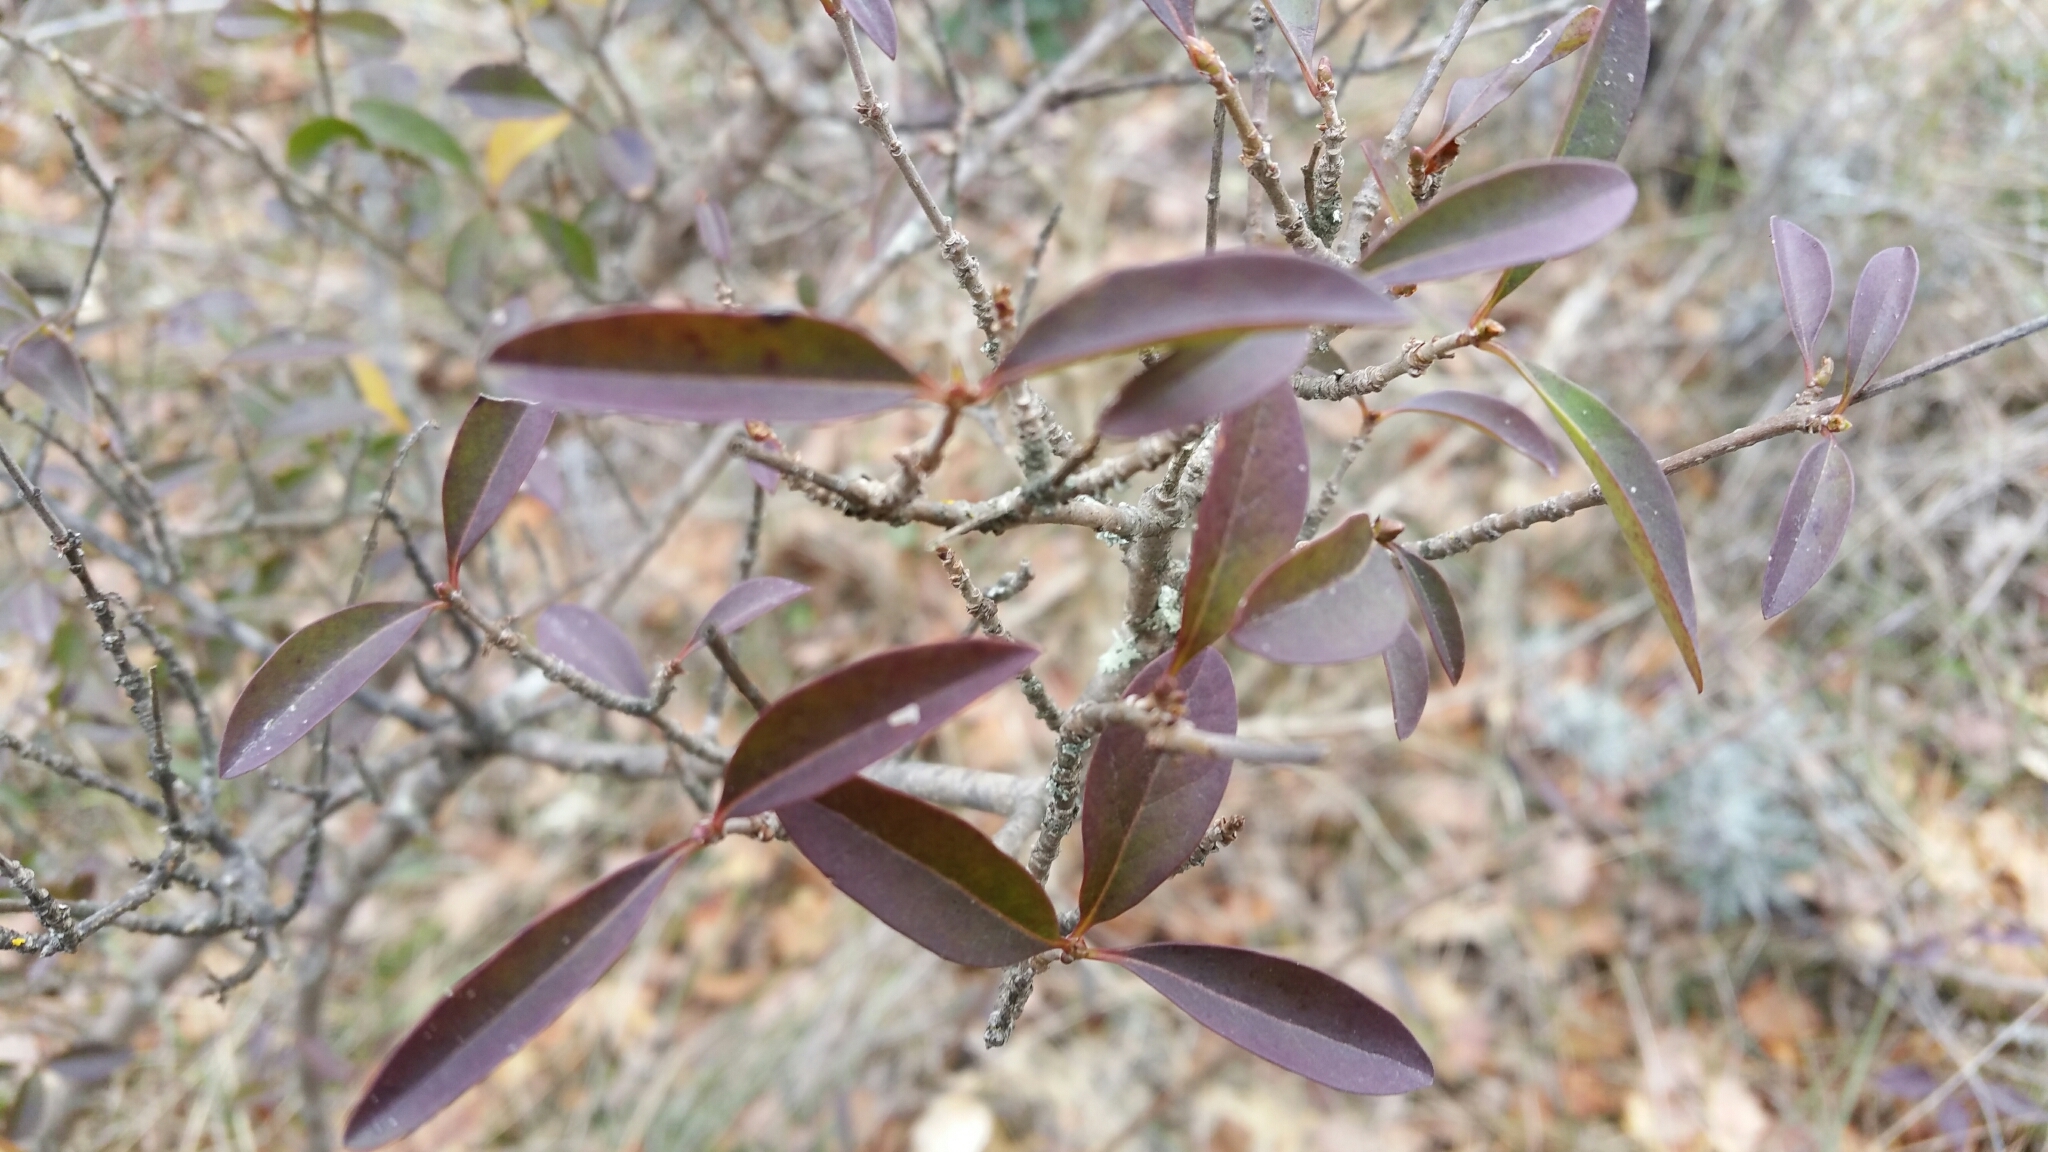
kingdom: Plantae
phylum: Tracheophyta
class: Magnoliopsida
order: Lamiales
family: Oleaceae
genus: Ligustrum
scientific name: Ligustrum vulgare
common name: Wild privet
